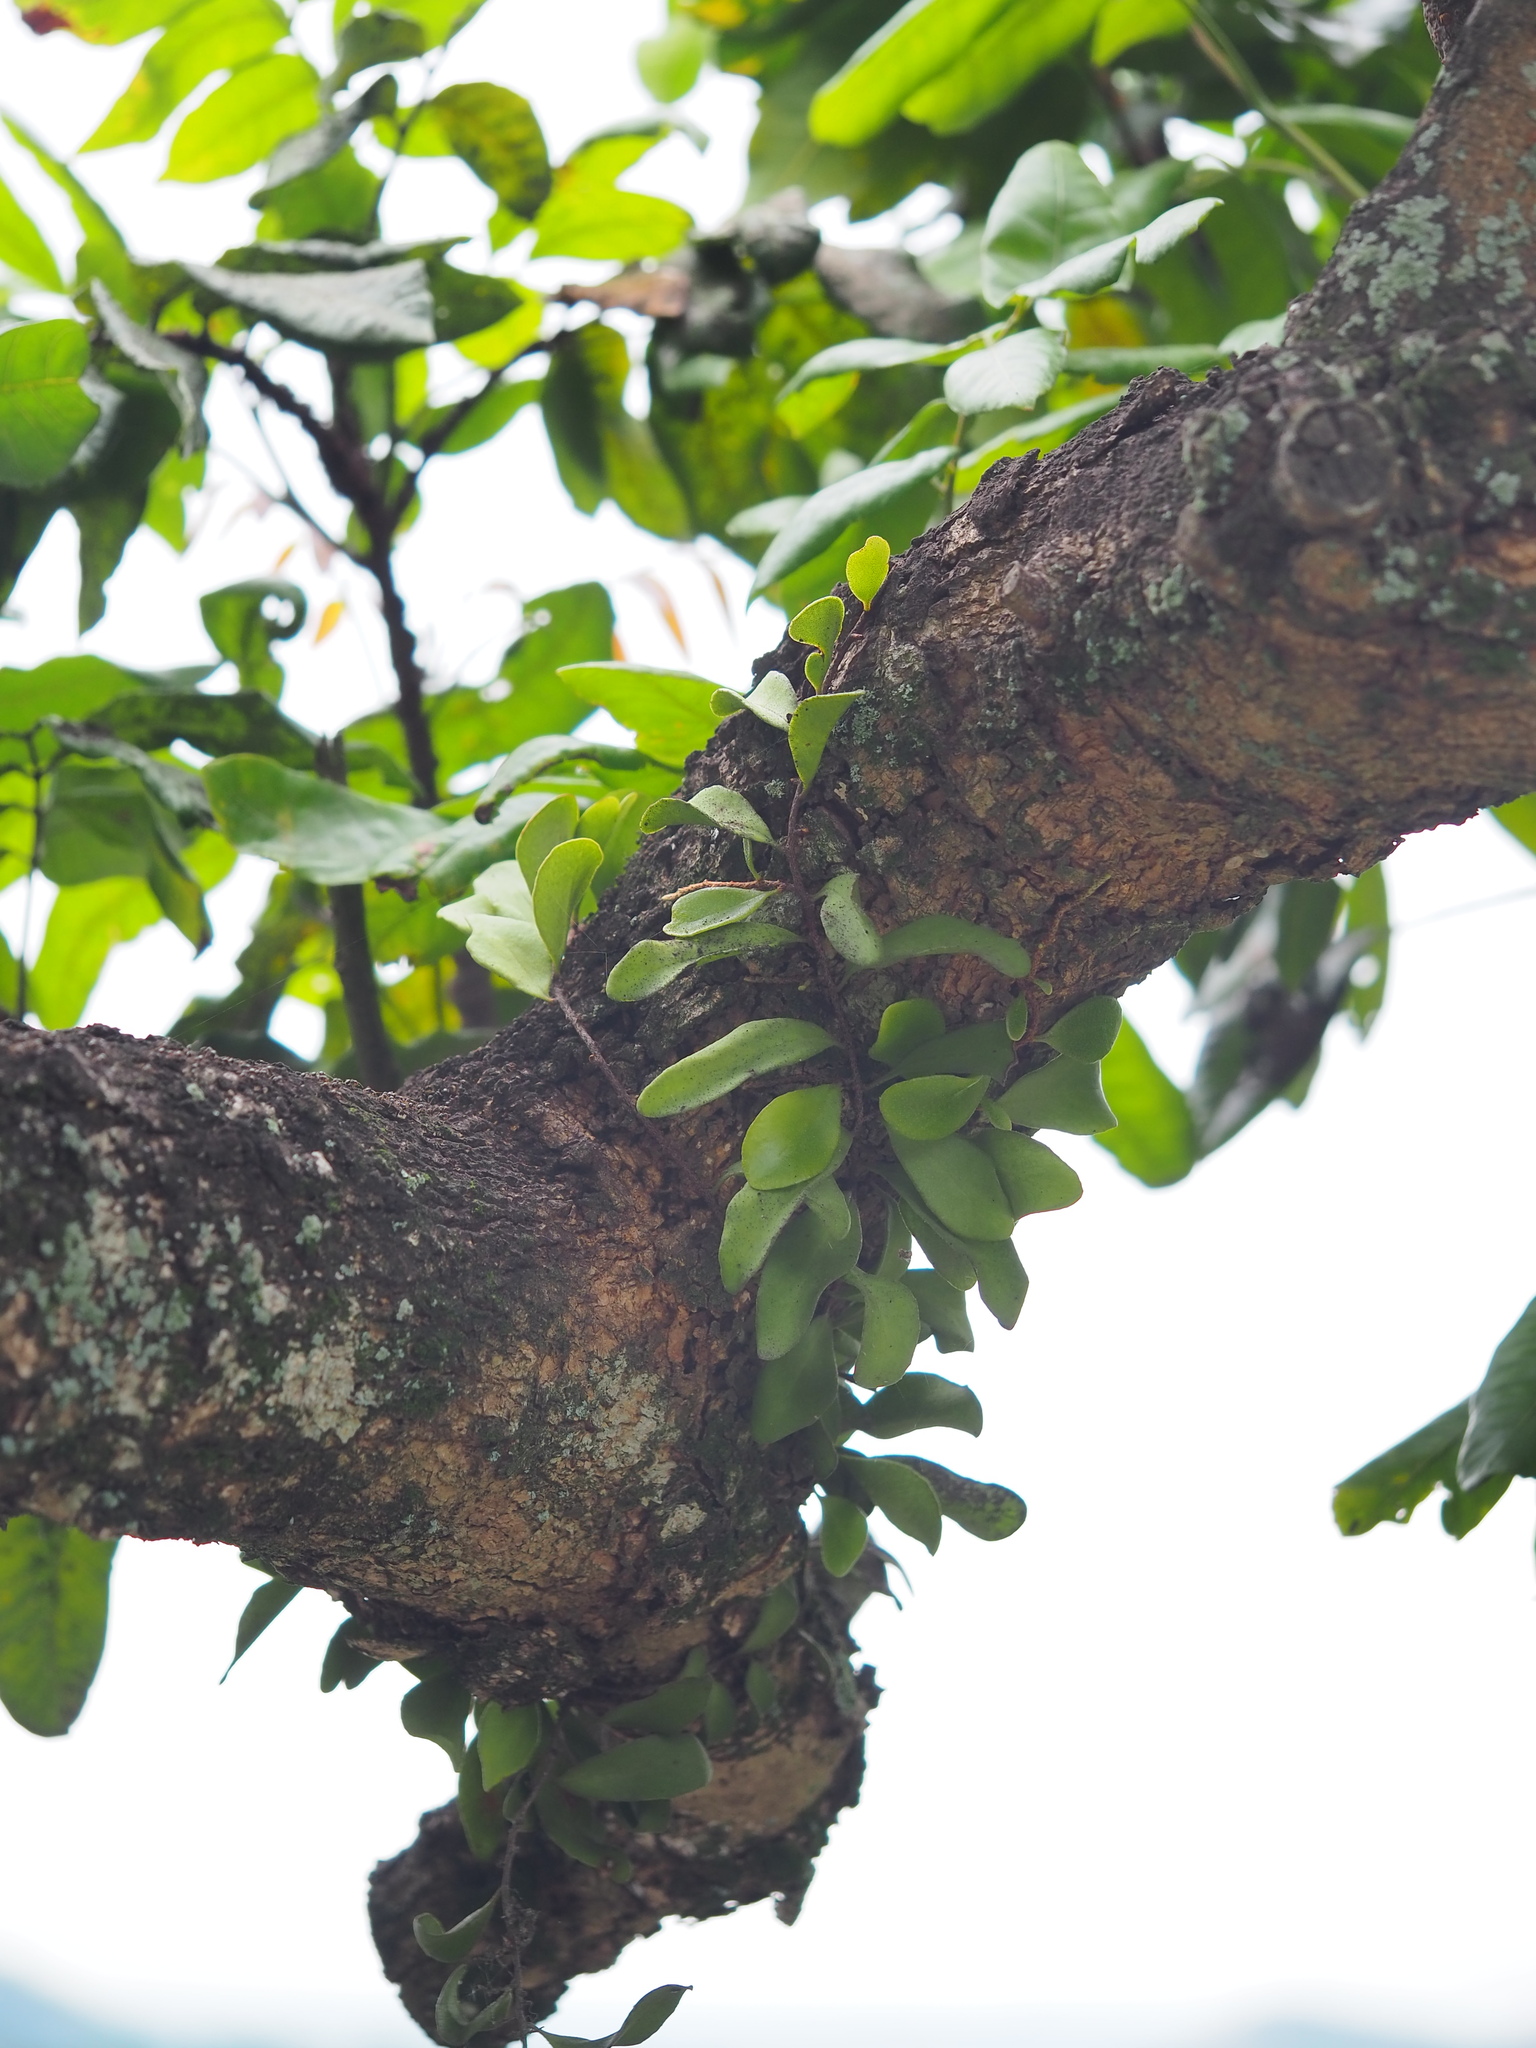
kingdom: Plantae
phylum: Tracheophyta
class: Polypodiopsida
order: Polypodiales
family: Polypodiaceae
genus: Pyrrosia
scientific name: Pyrrosia lanceolata
